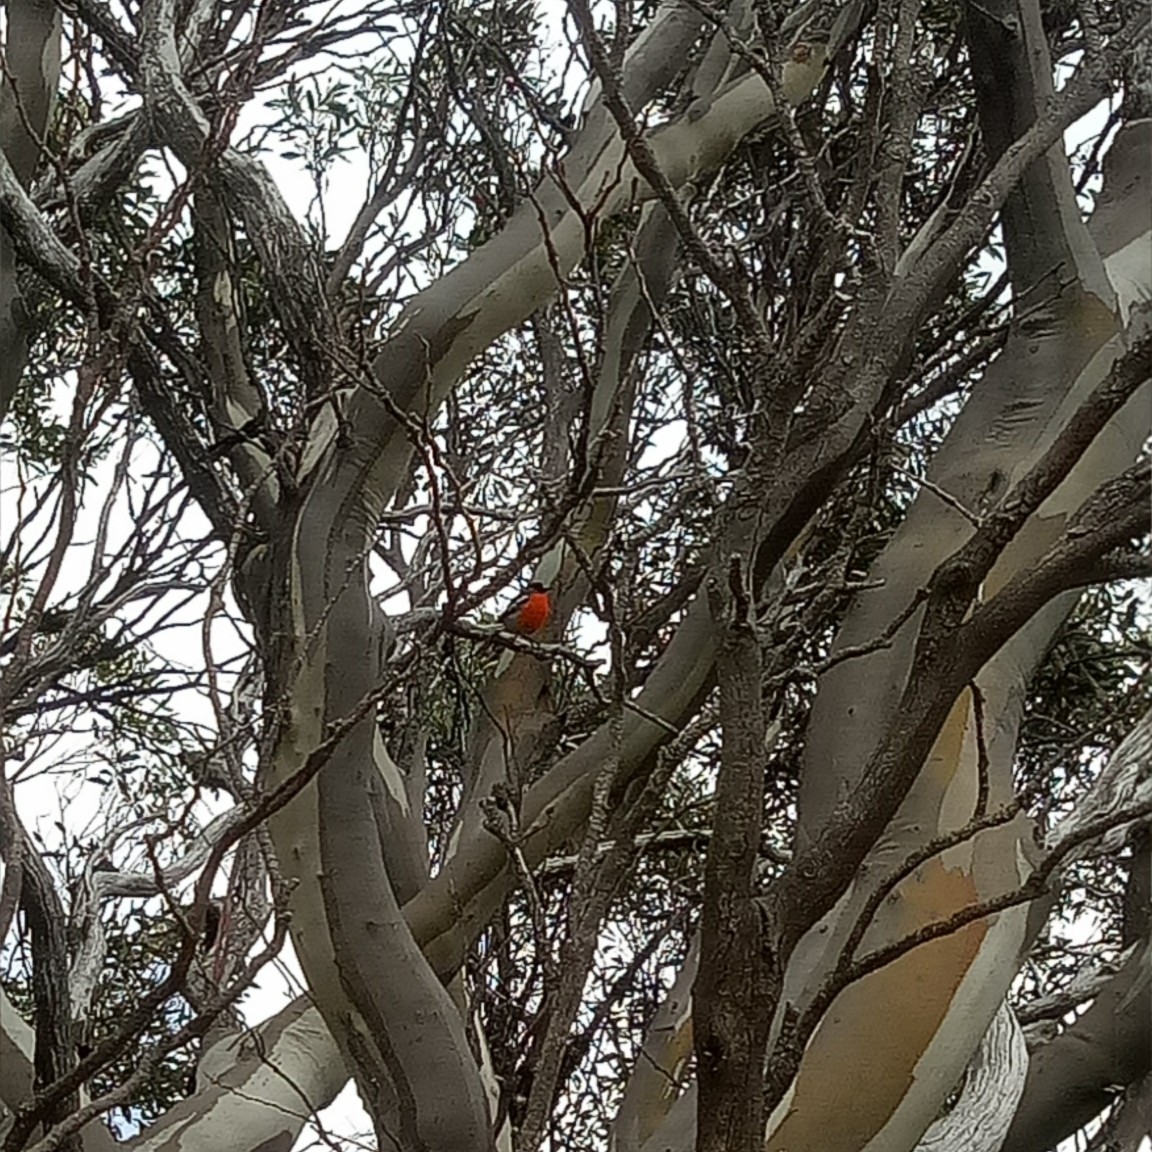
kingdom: Animalia
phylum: Chordata
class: Aves
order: Passeriformes
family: Petroicidae
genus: Petroica
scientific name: Petroica phoenicea
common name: Flame robin
